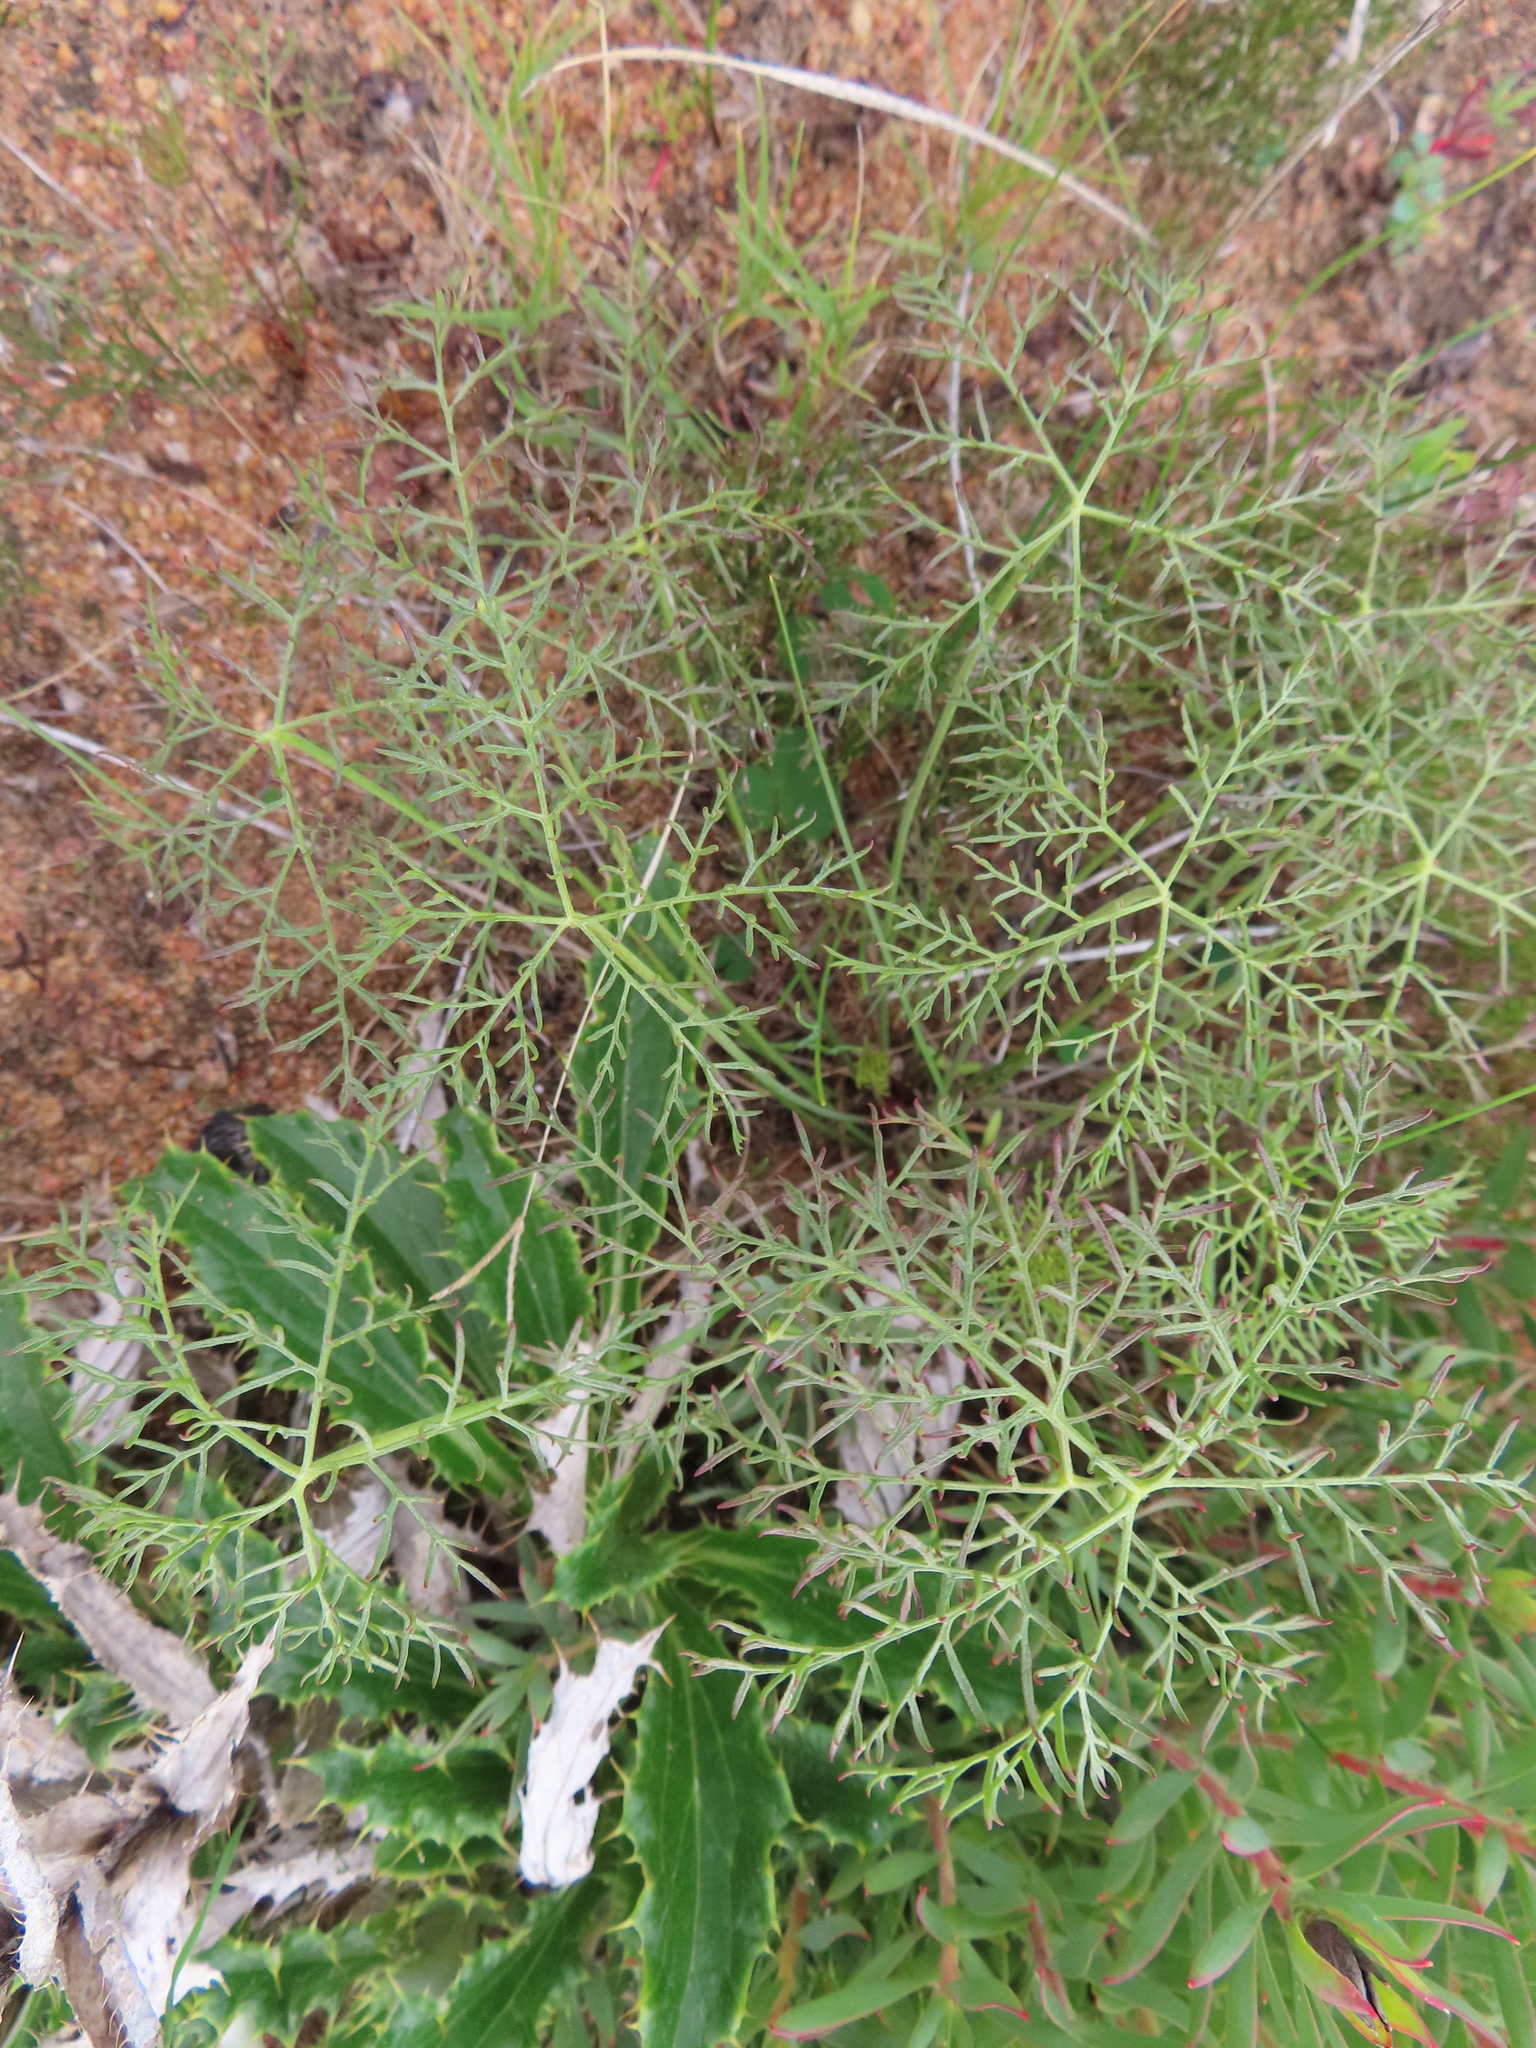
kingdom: Plantae
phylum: Tracheophyta
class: Magnoliopsida
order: Geraniales
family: Geraniaceae
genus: Monsonia
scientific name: Monsonia speciosa
